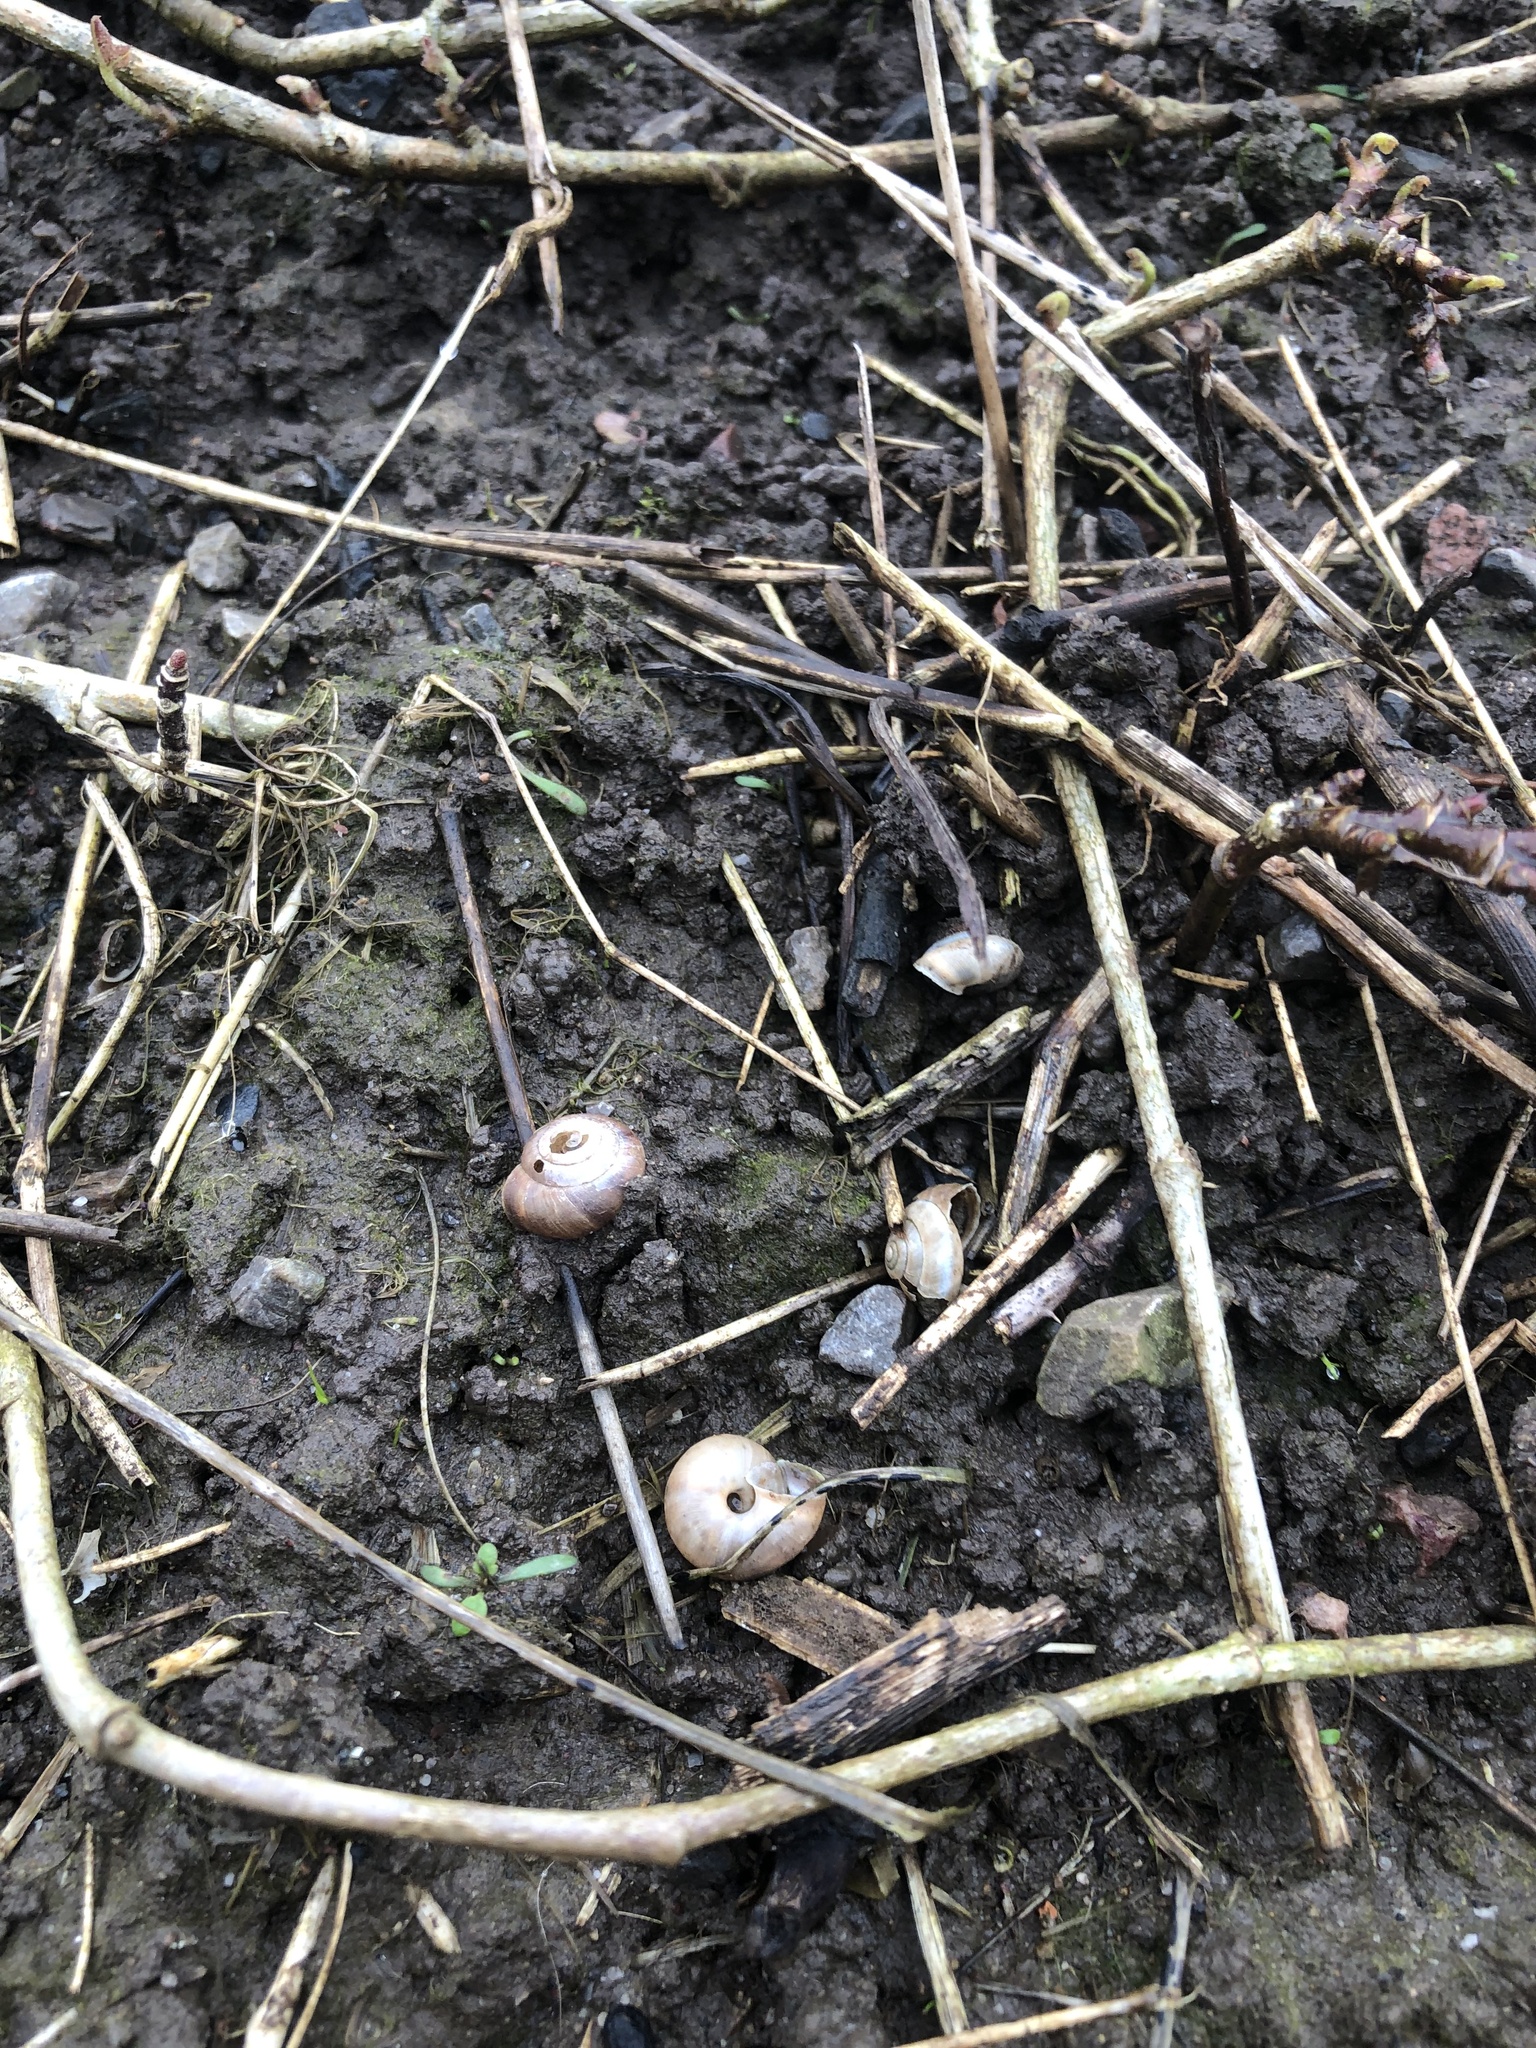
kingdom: Animalia
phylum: Mollusca
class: Gastropoda
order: Stylommatophora
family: Hygromiidae
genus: Trochulus
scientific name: Trochulus striolatus
